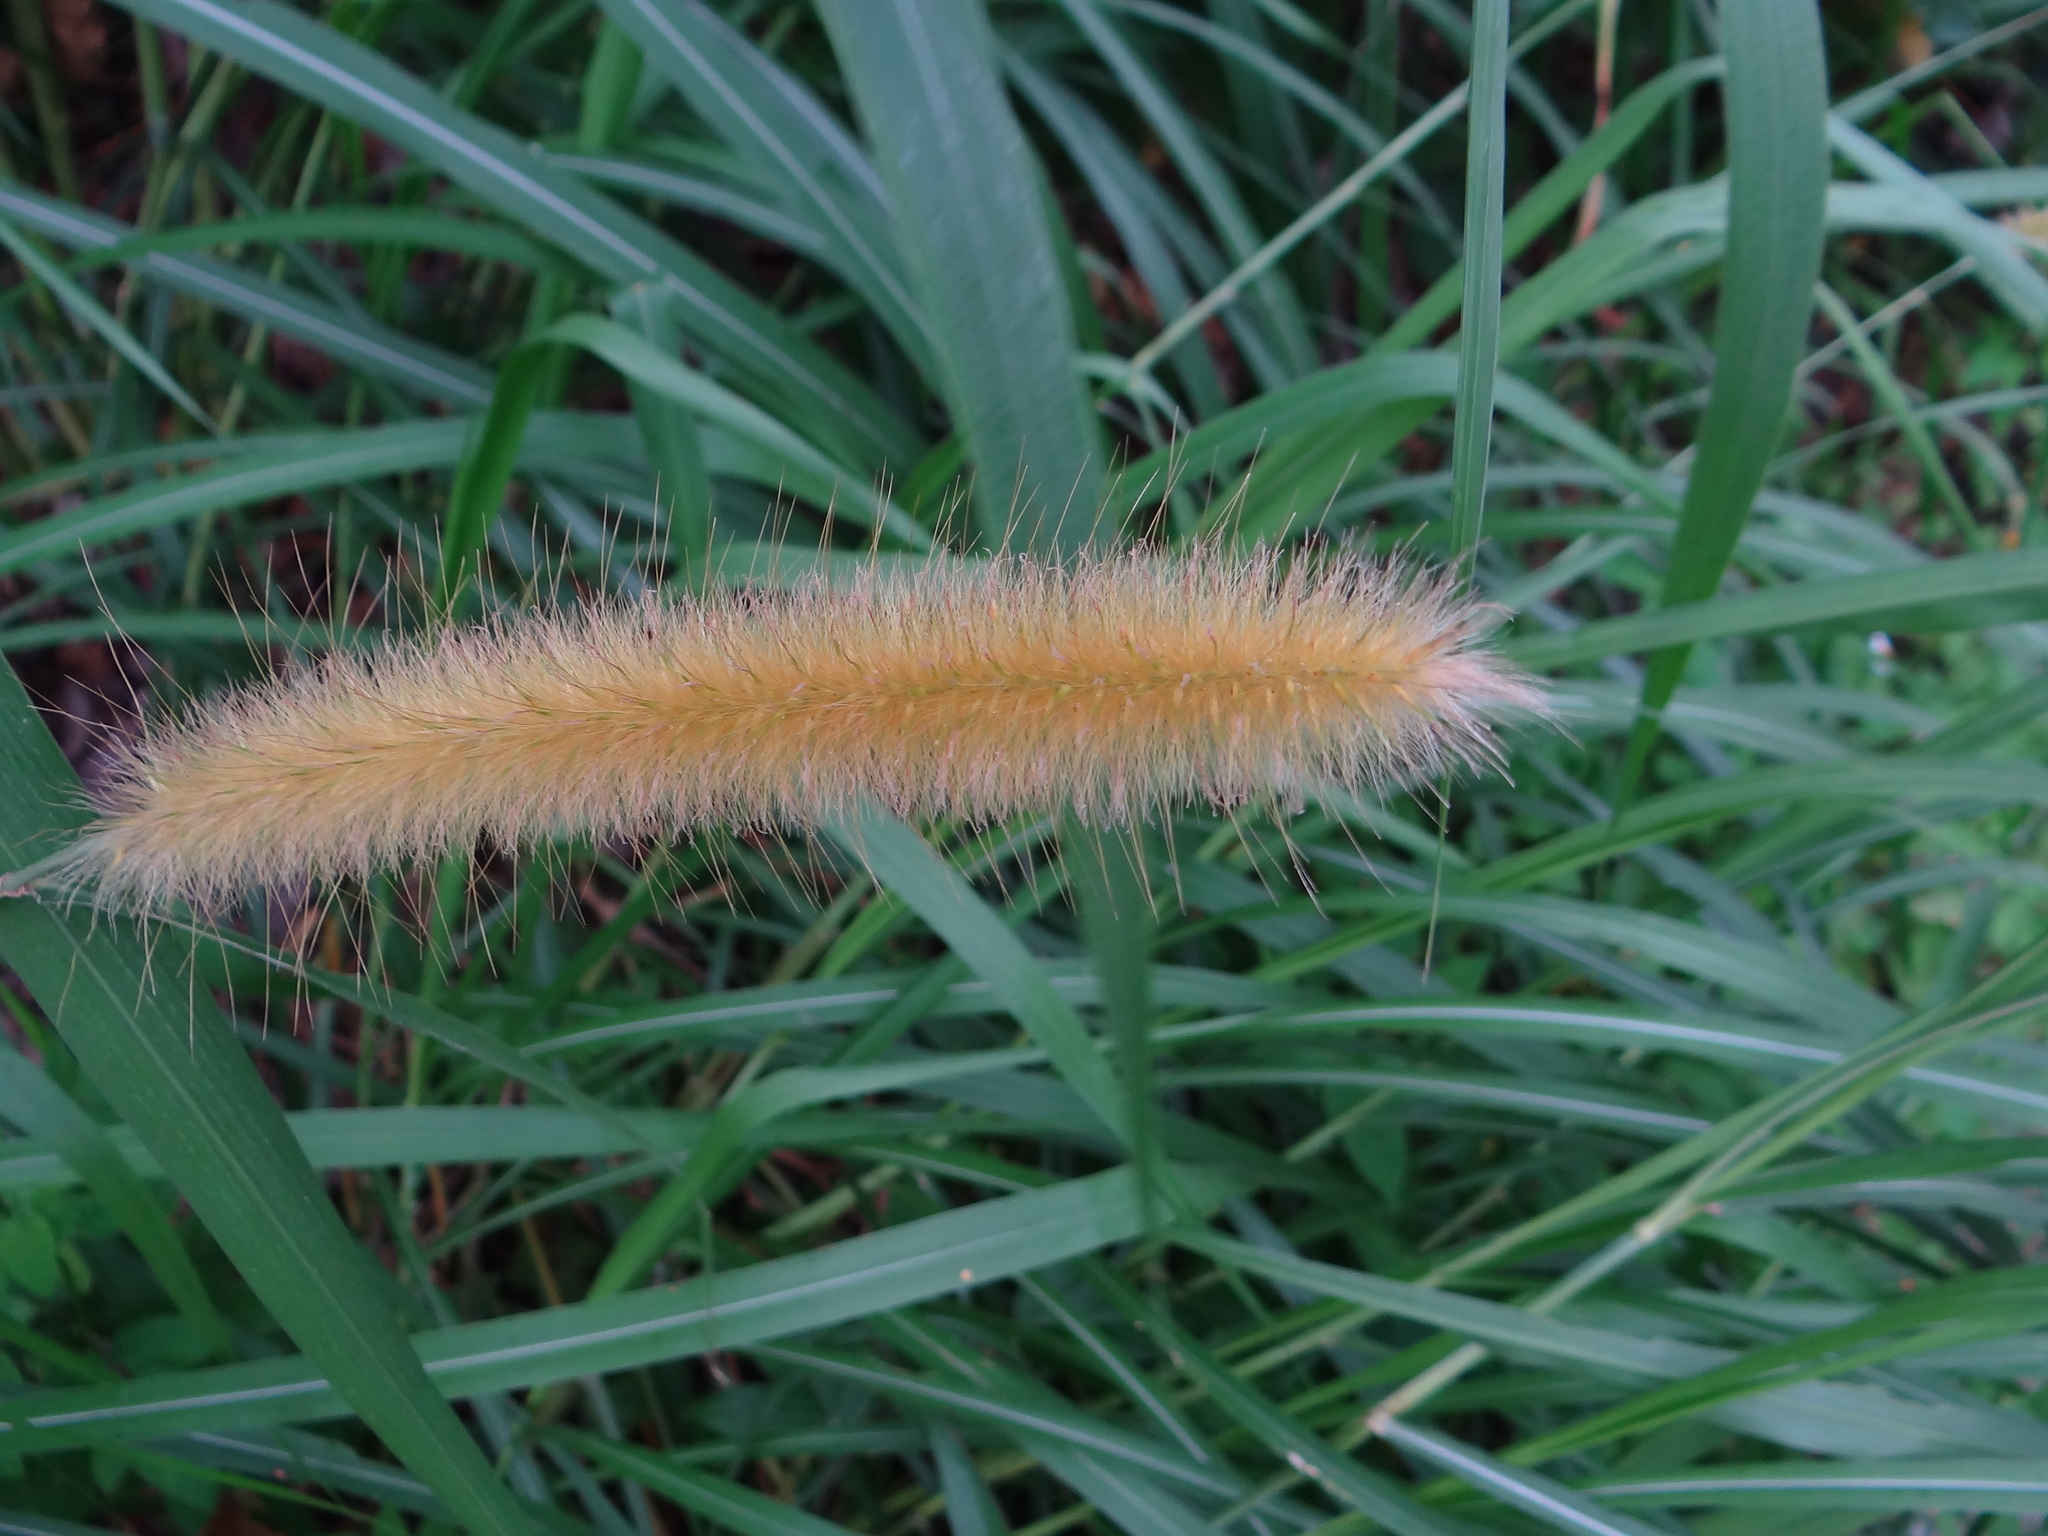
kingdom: Plantae
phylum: Tracheophyta
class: Liliopsida
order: Poales
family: Poaceae
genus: Cenchrus
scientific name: Cenchrus purpureus
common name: Elephant grass
